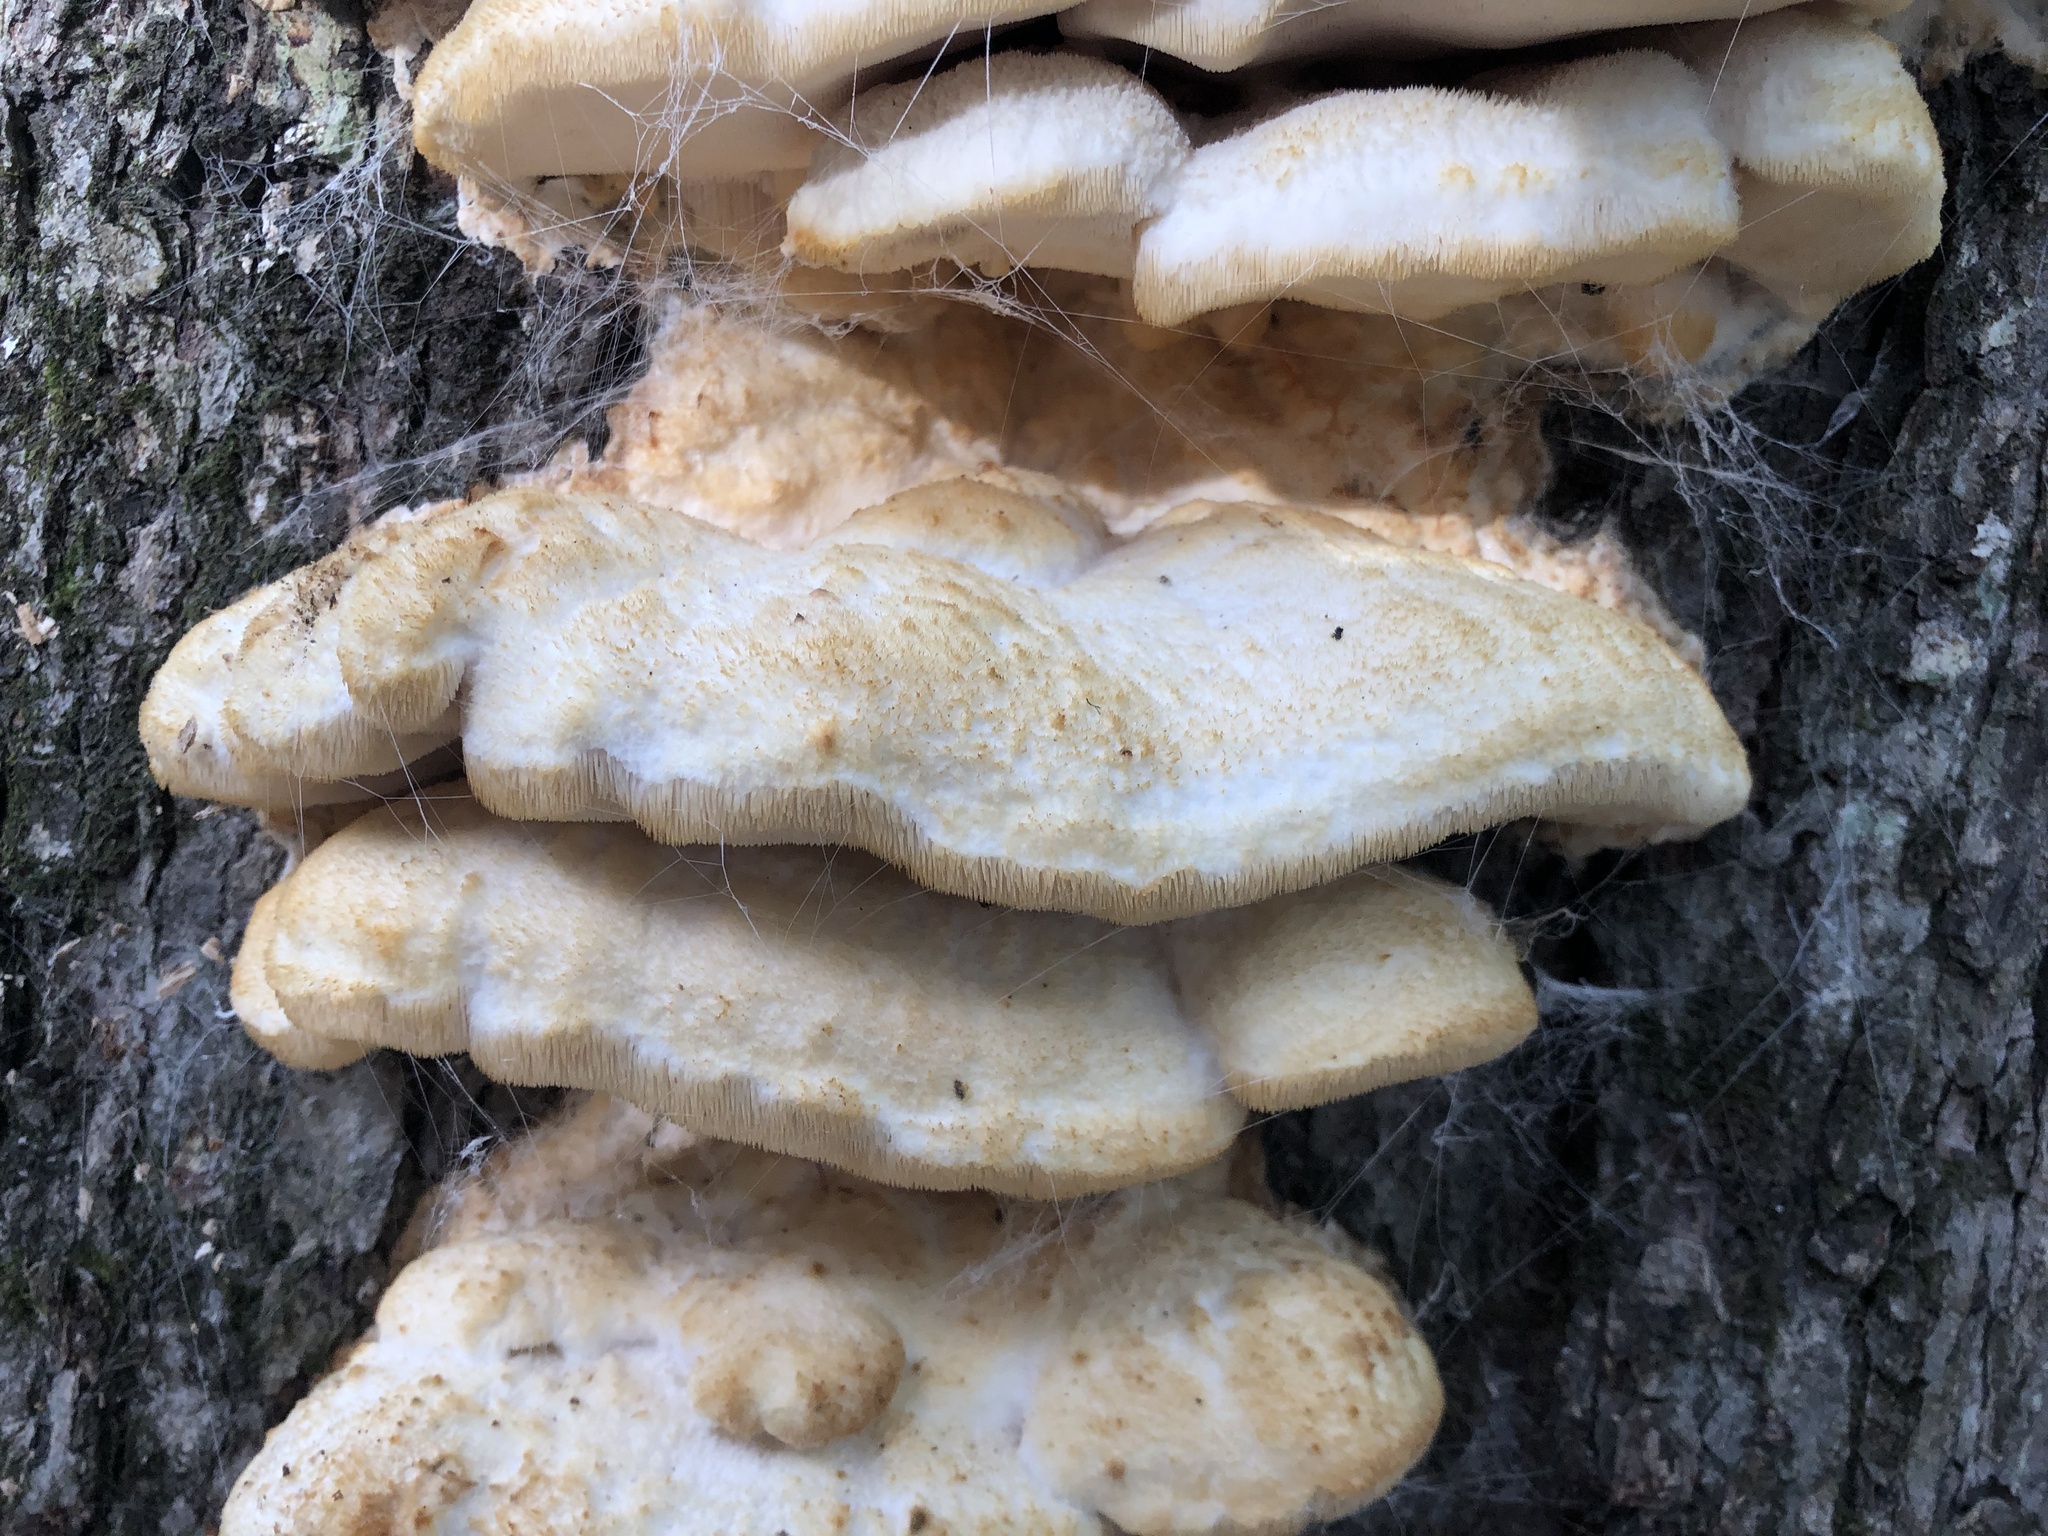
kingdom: Fungi
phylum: Basidiomycota
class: Agaricomycetes
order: Polyporales
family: Meruliaceae
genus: Climacodon
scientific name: Climacodon septentrionalis
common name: Northern tooth
